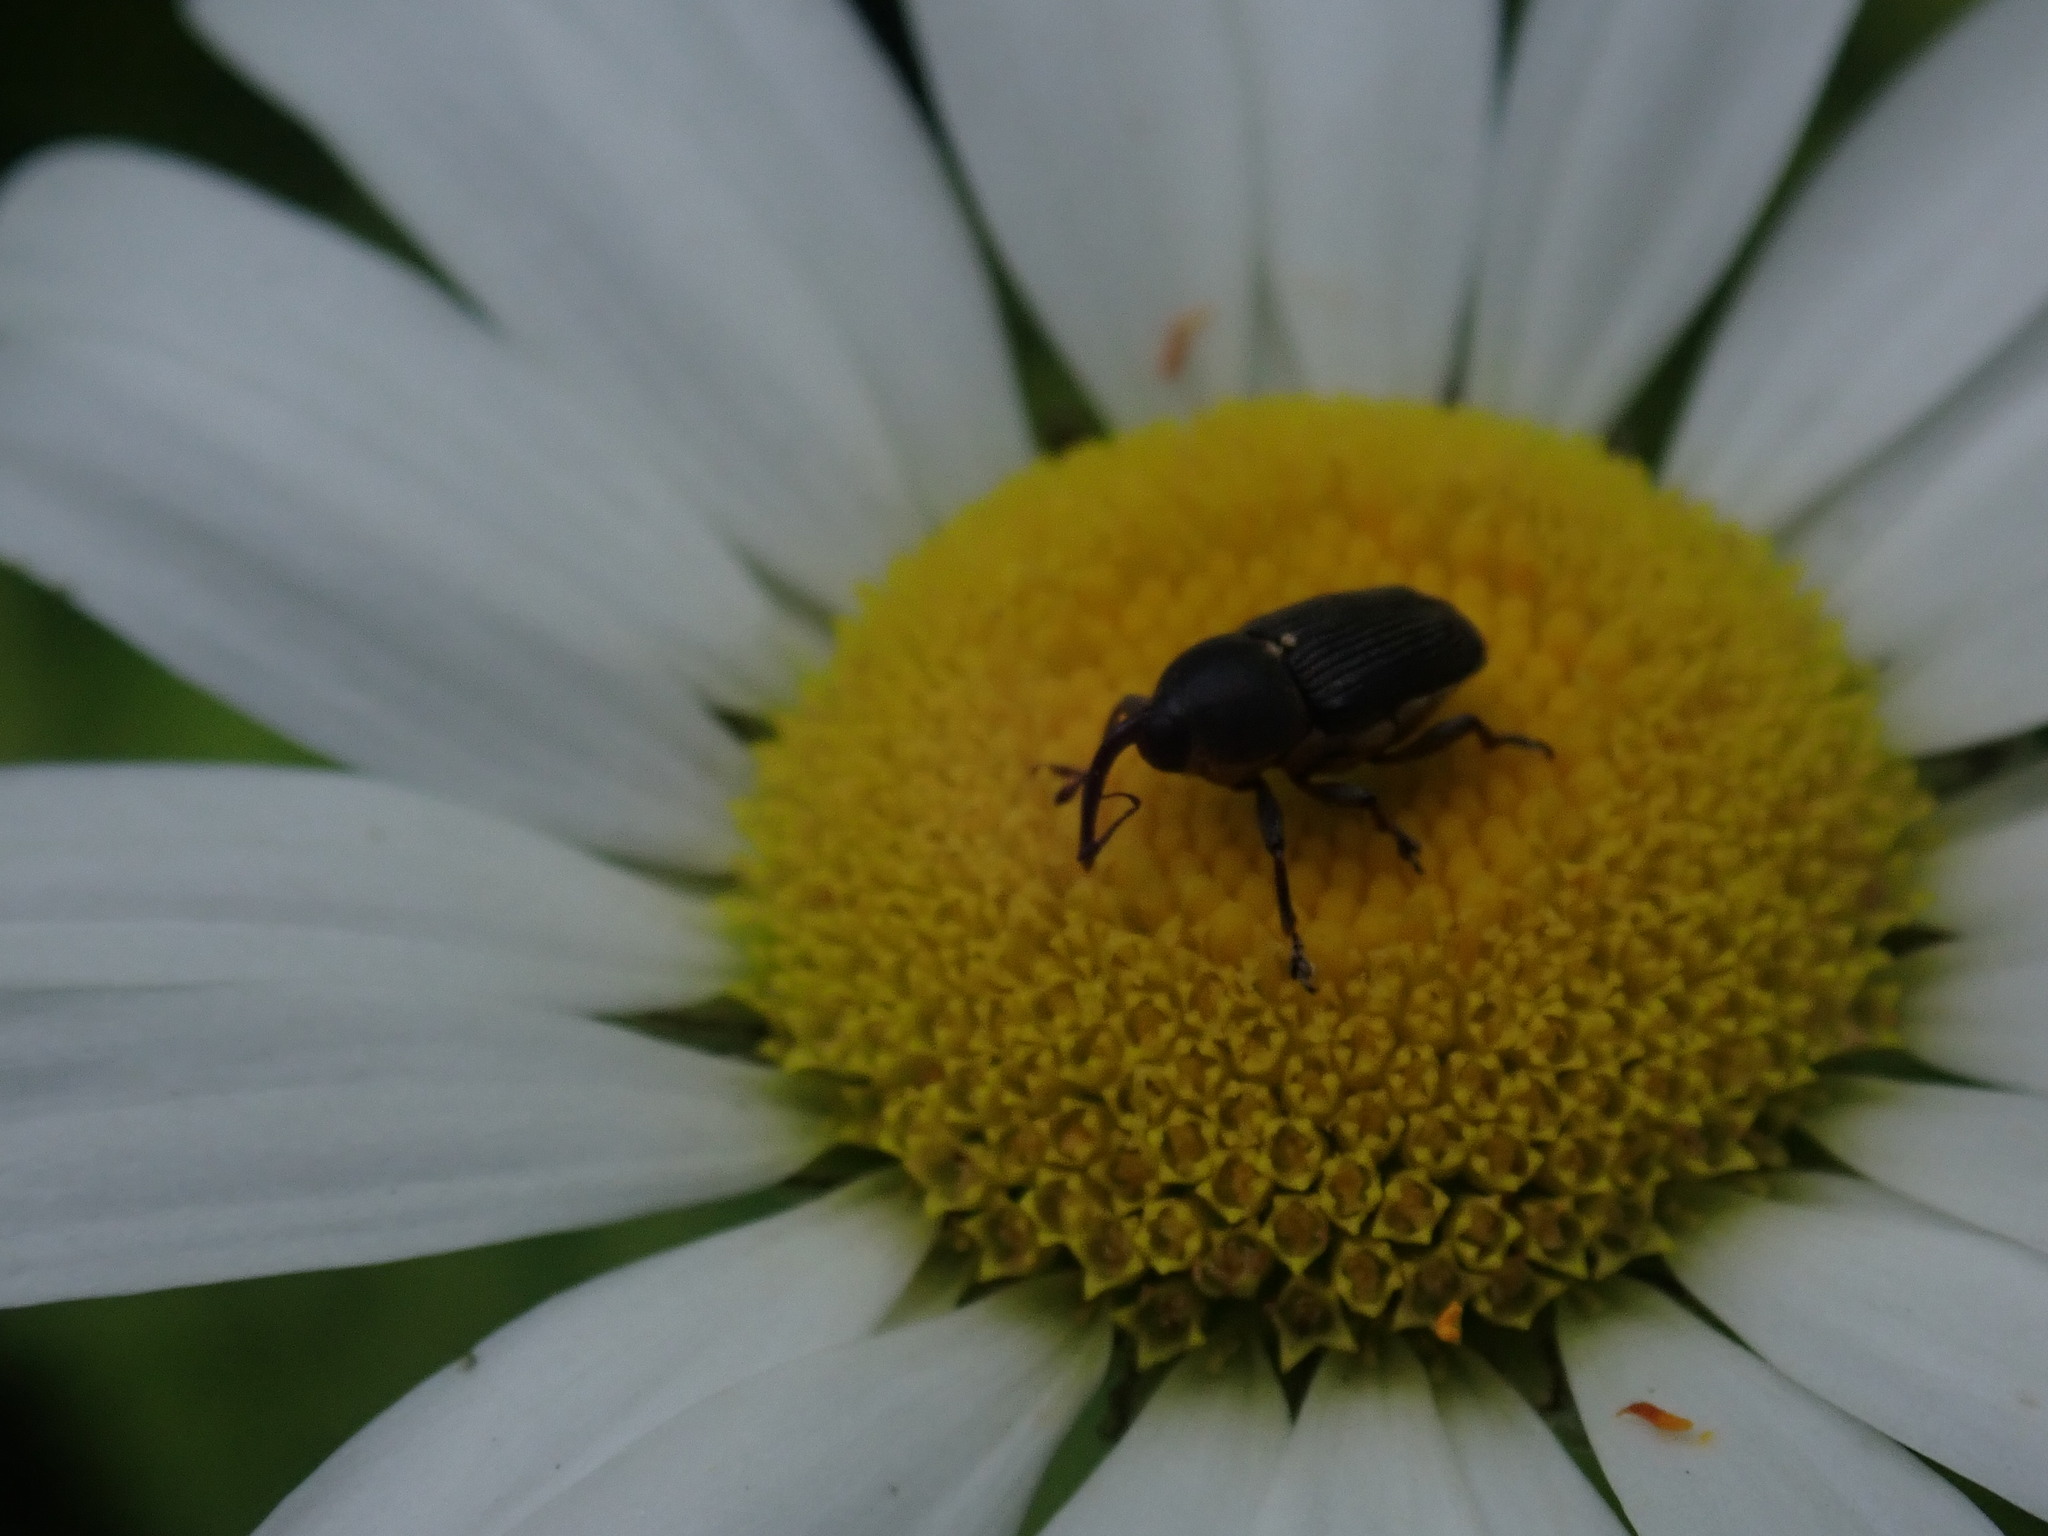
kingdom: Animalia
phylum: Arthropoda
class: Insecta
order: Coleoptera
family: Curculionidae
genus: Odontocorynus
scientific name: Odontocorynus salebrosus
